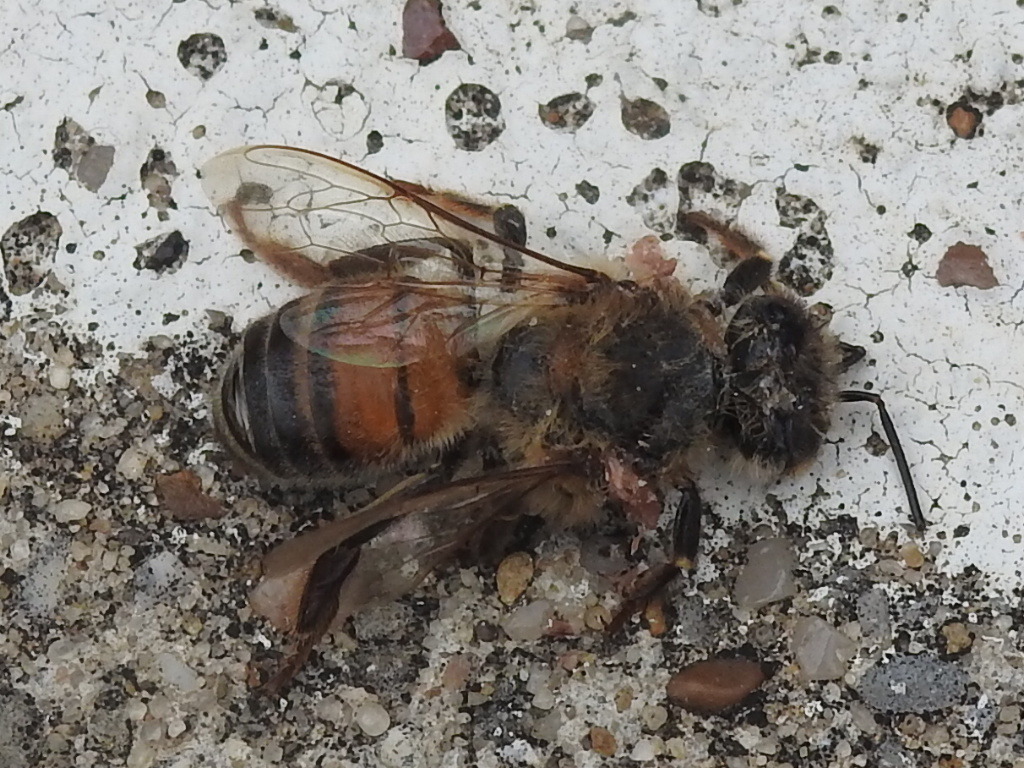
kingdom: Animalia
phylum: Arthropoda
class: Insecta
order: Hymenoptera
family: Apidae
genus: Apis
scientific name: Apis mellifera
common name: Honey bee
